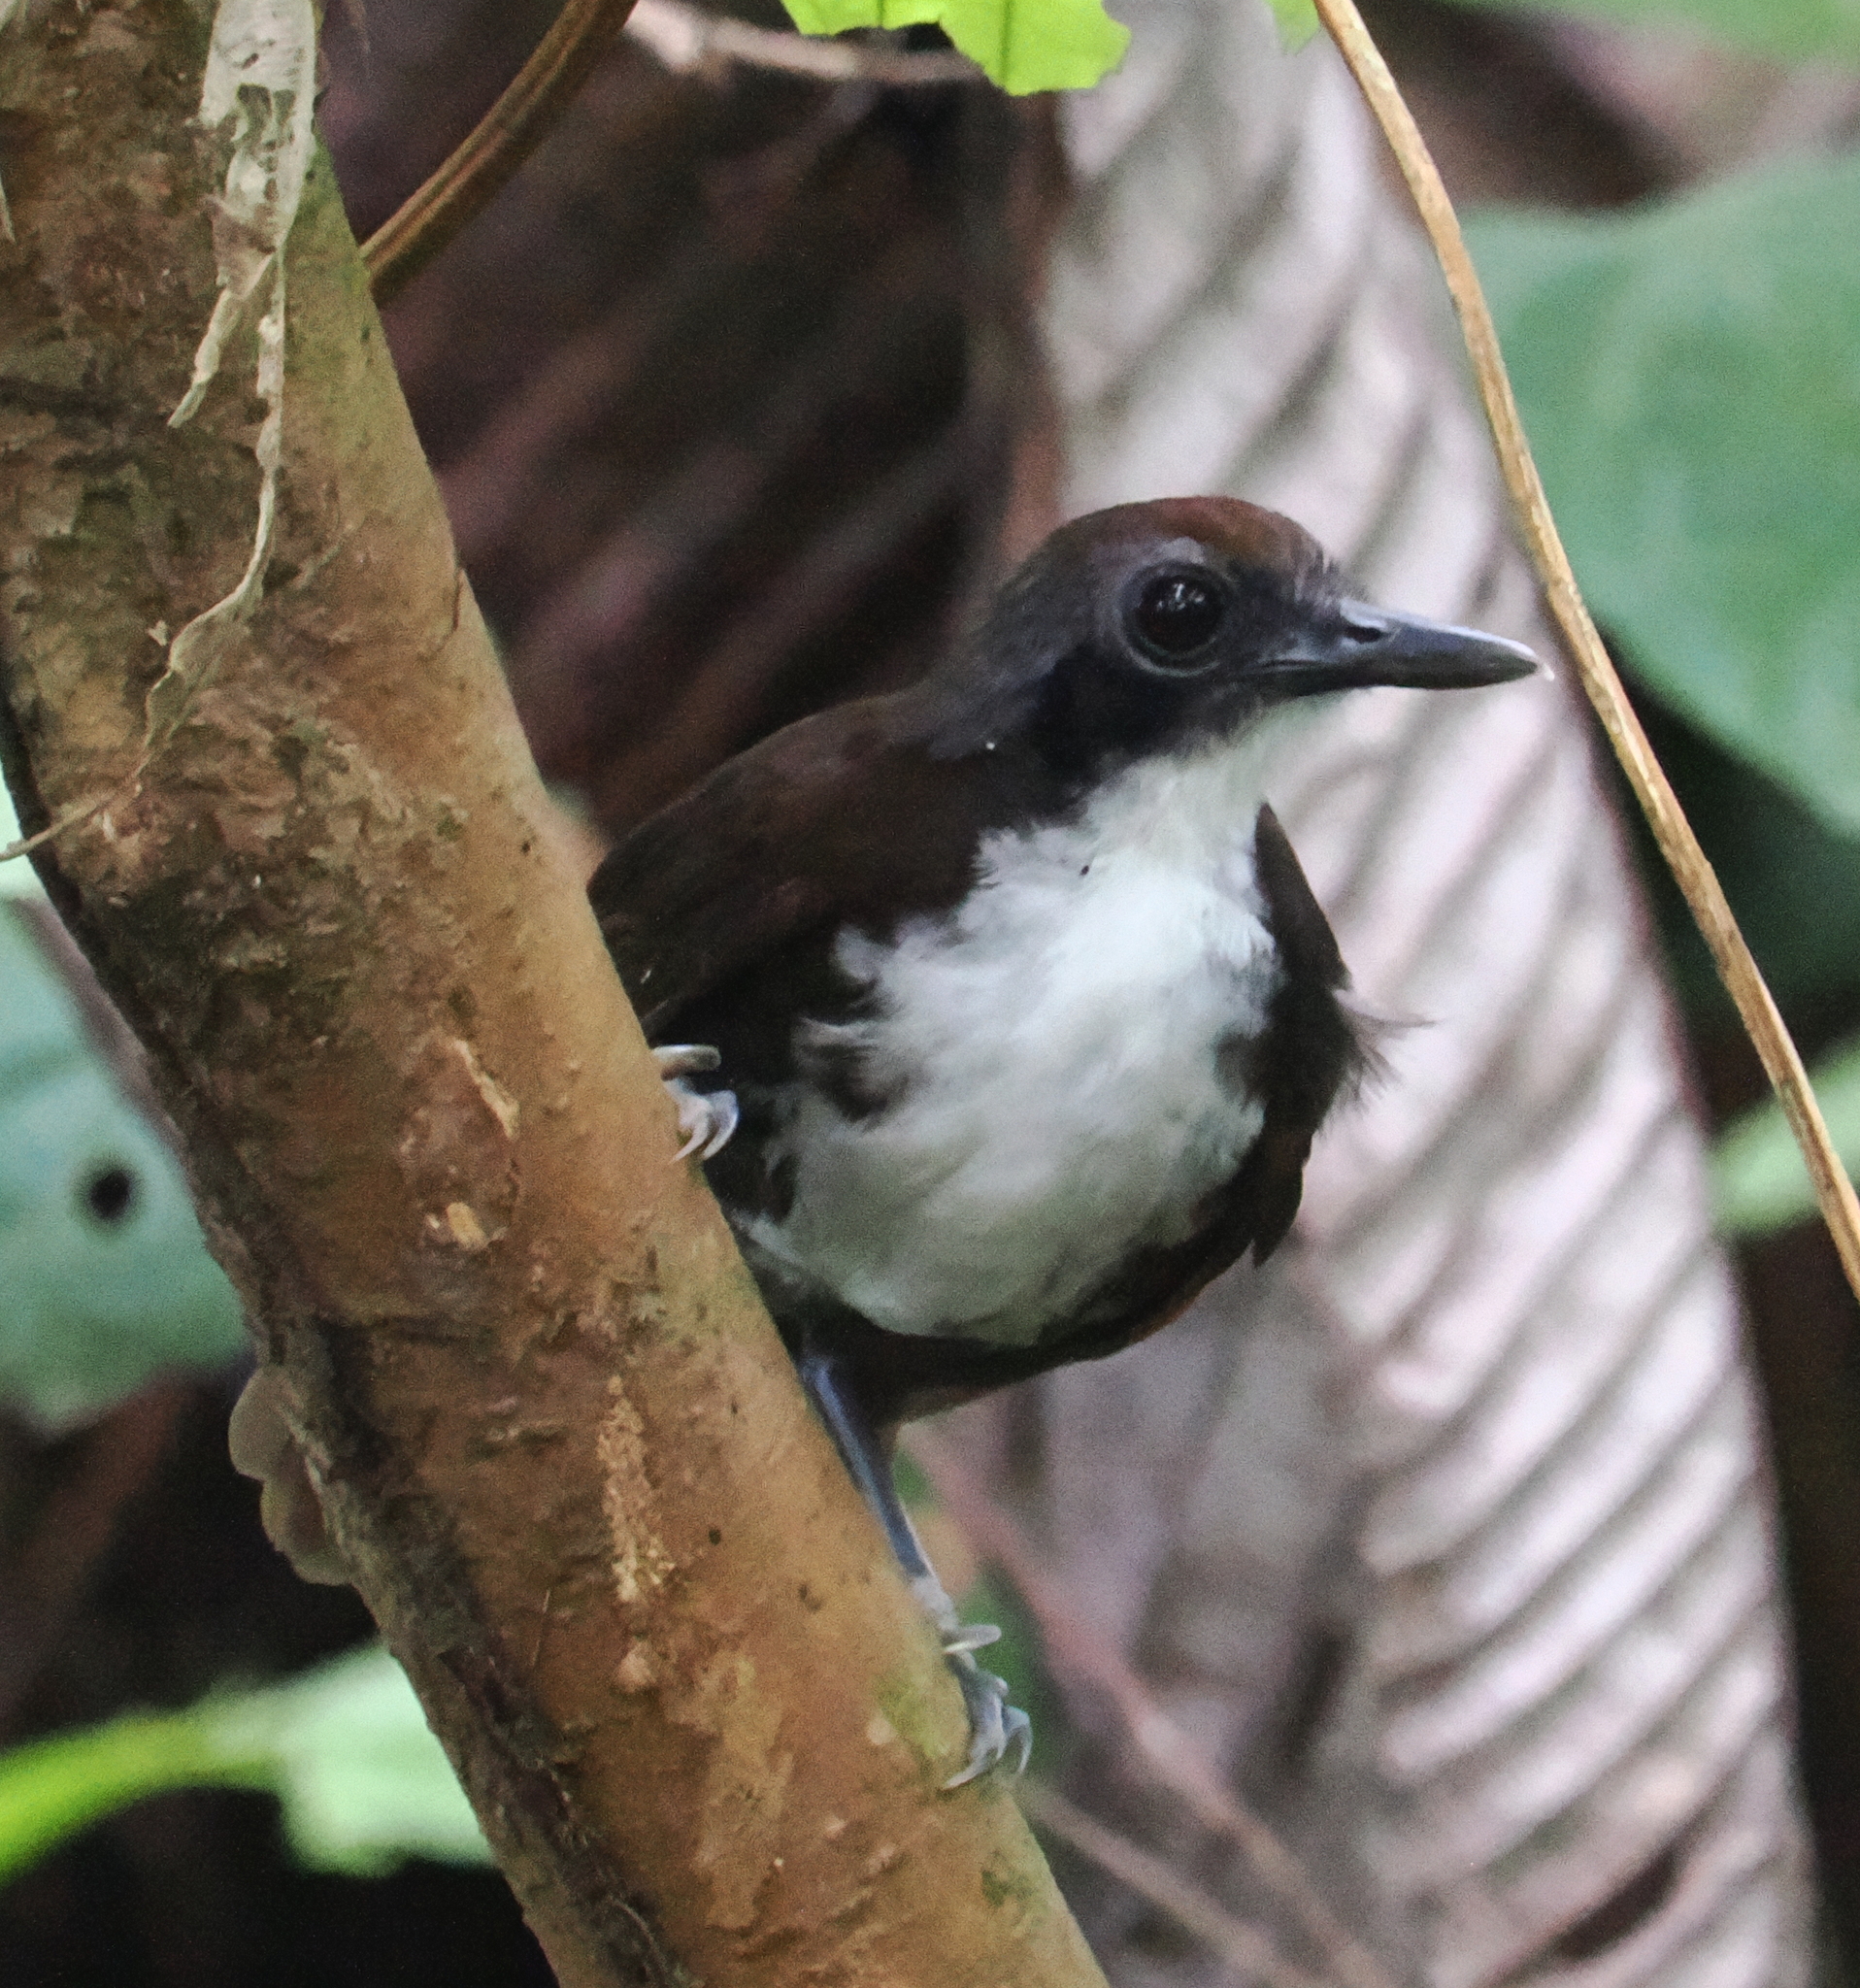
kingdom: Animalia
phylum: Chordata
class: Aves
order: Passeriformes
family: Thamnophilidae
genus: Gymnopithys
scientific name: Gymnopithys leucaspis
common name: White-cheeked antbird
